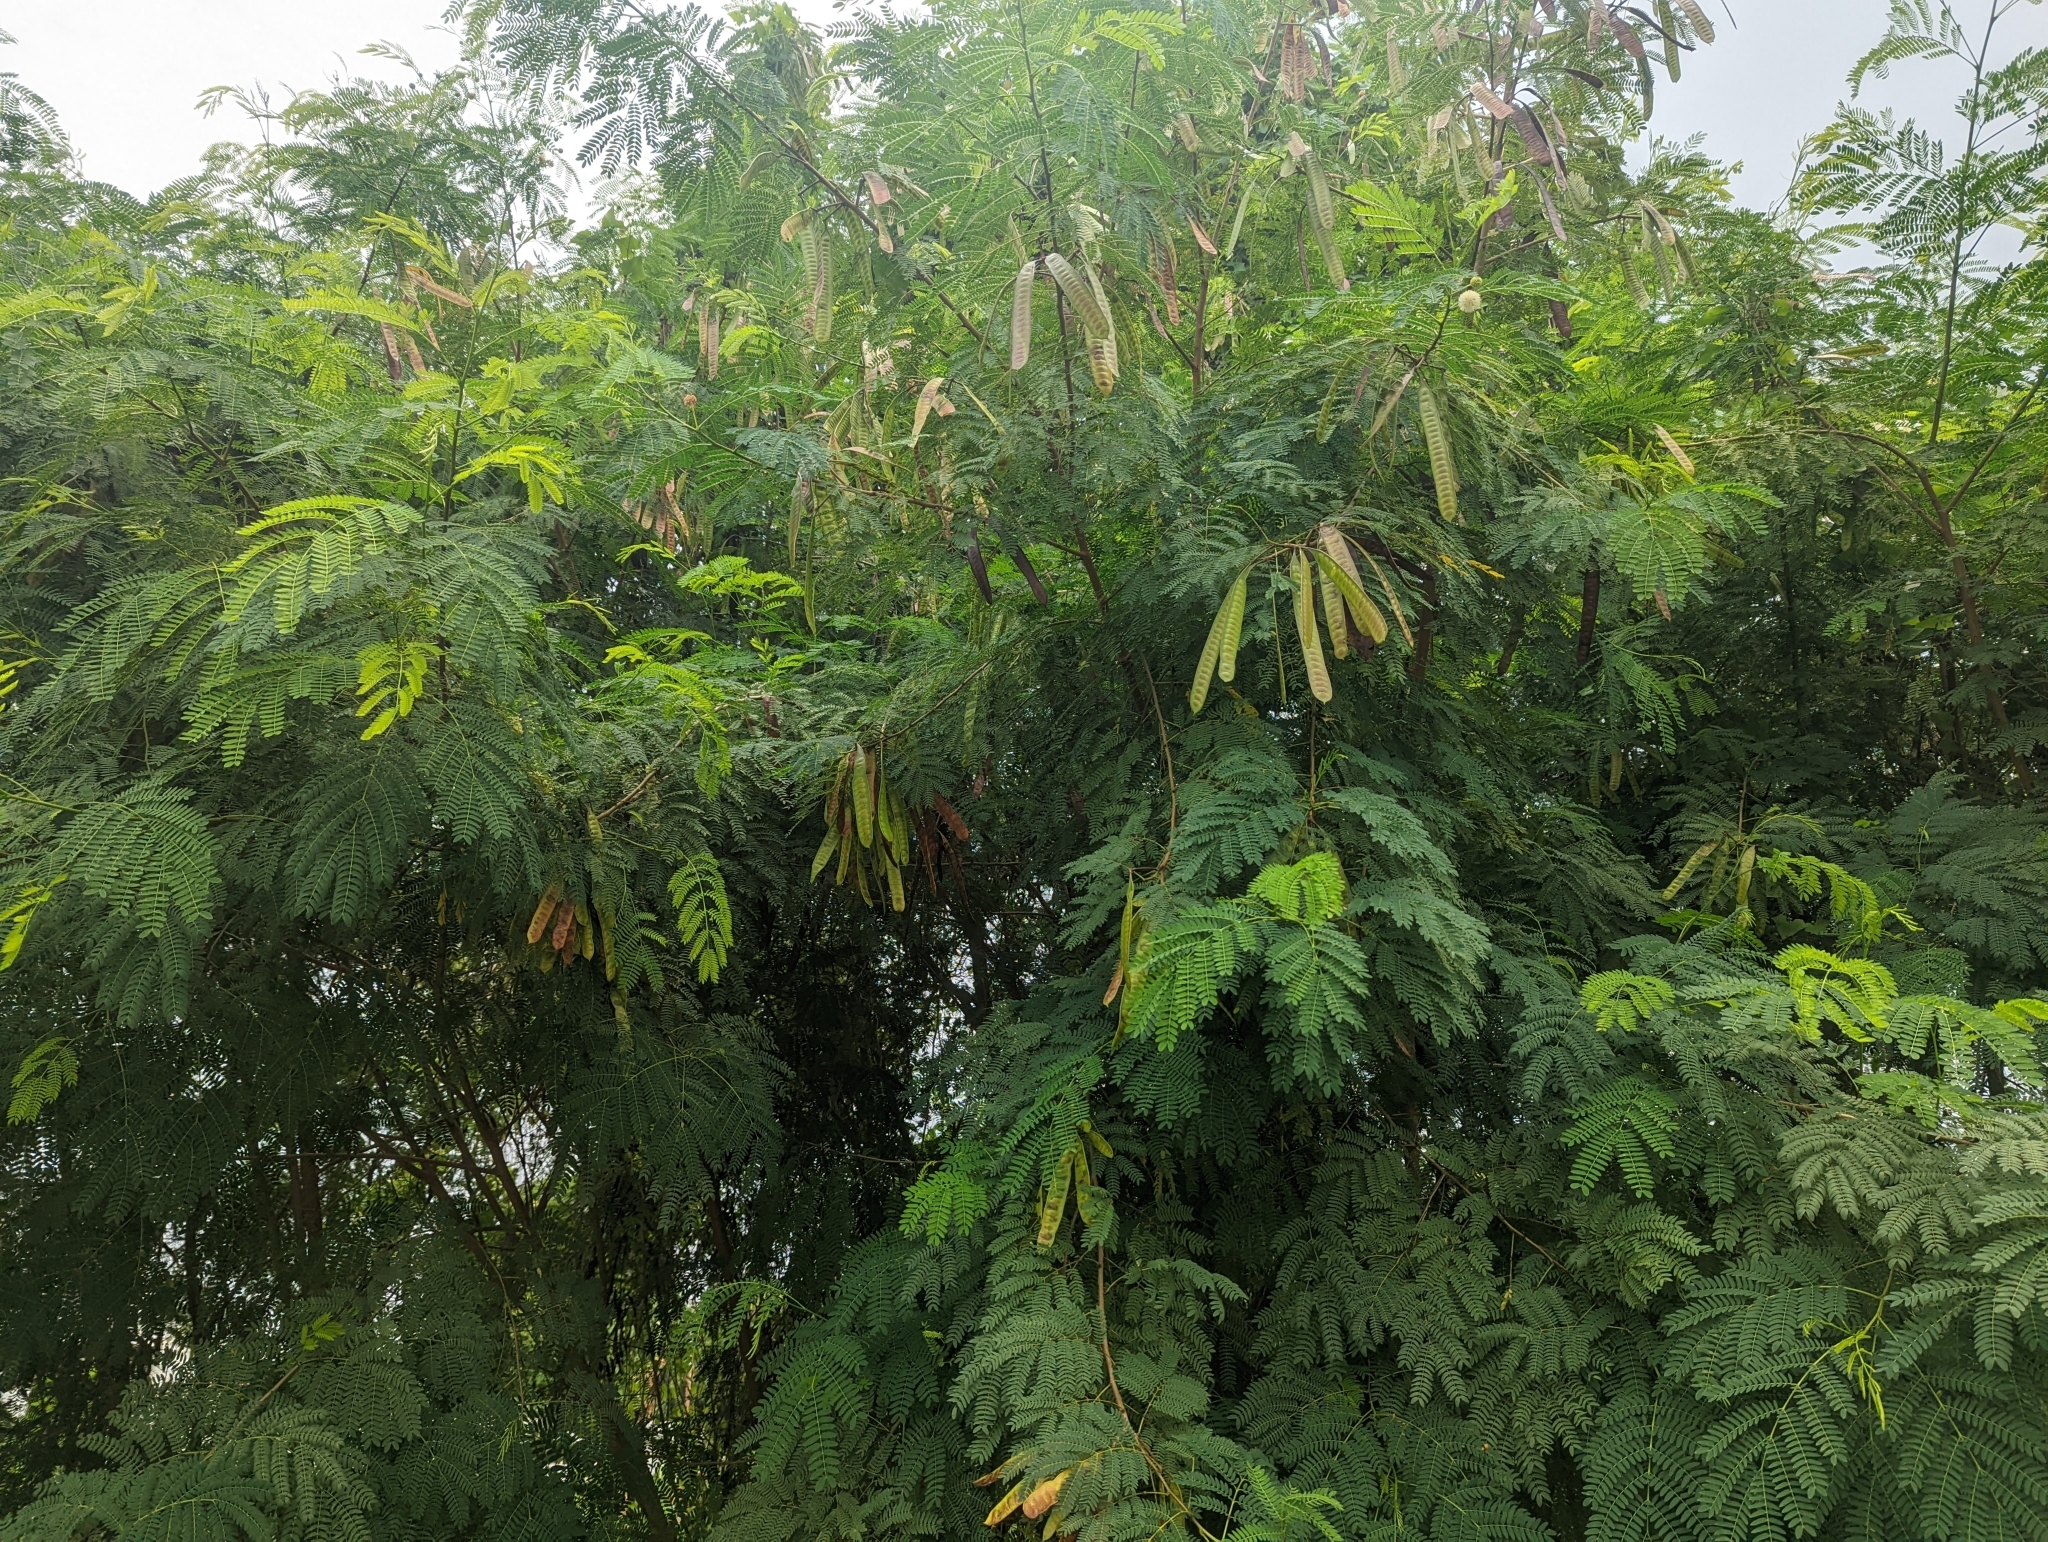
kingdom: Plantae
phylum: Tracheophyta
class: Magnoliopsida
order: Fabales
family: Fabaceae
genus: Leucaena
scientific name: Leucaena leucocephala
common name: White leadtree
